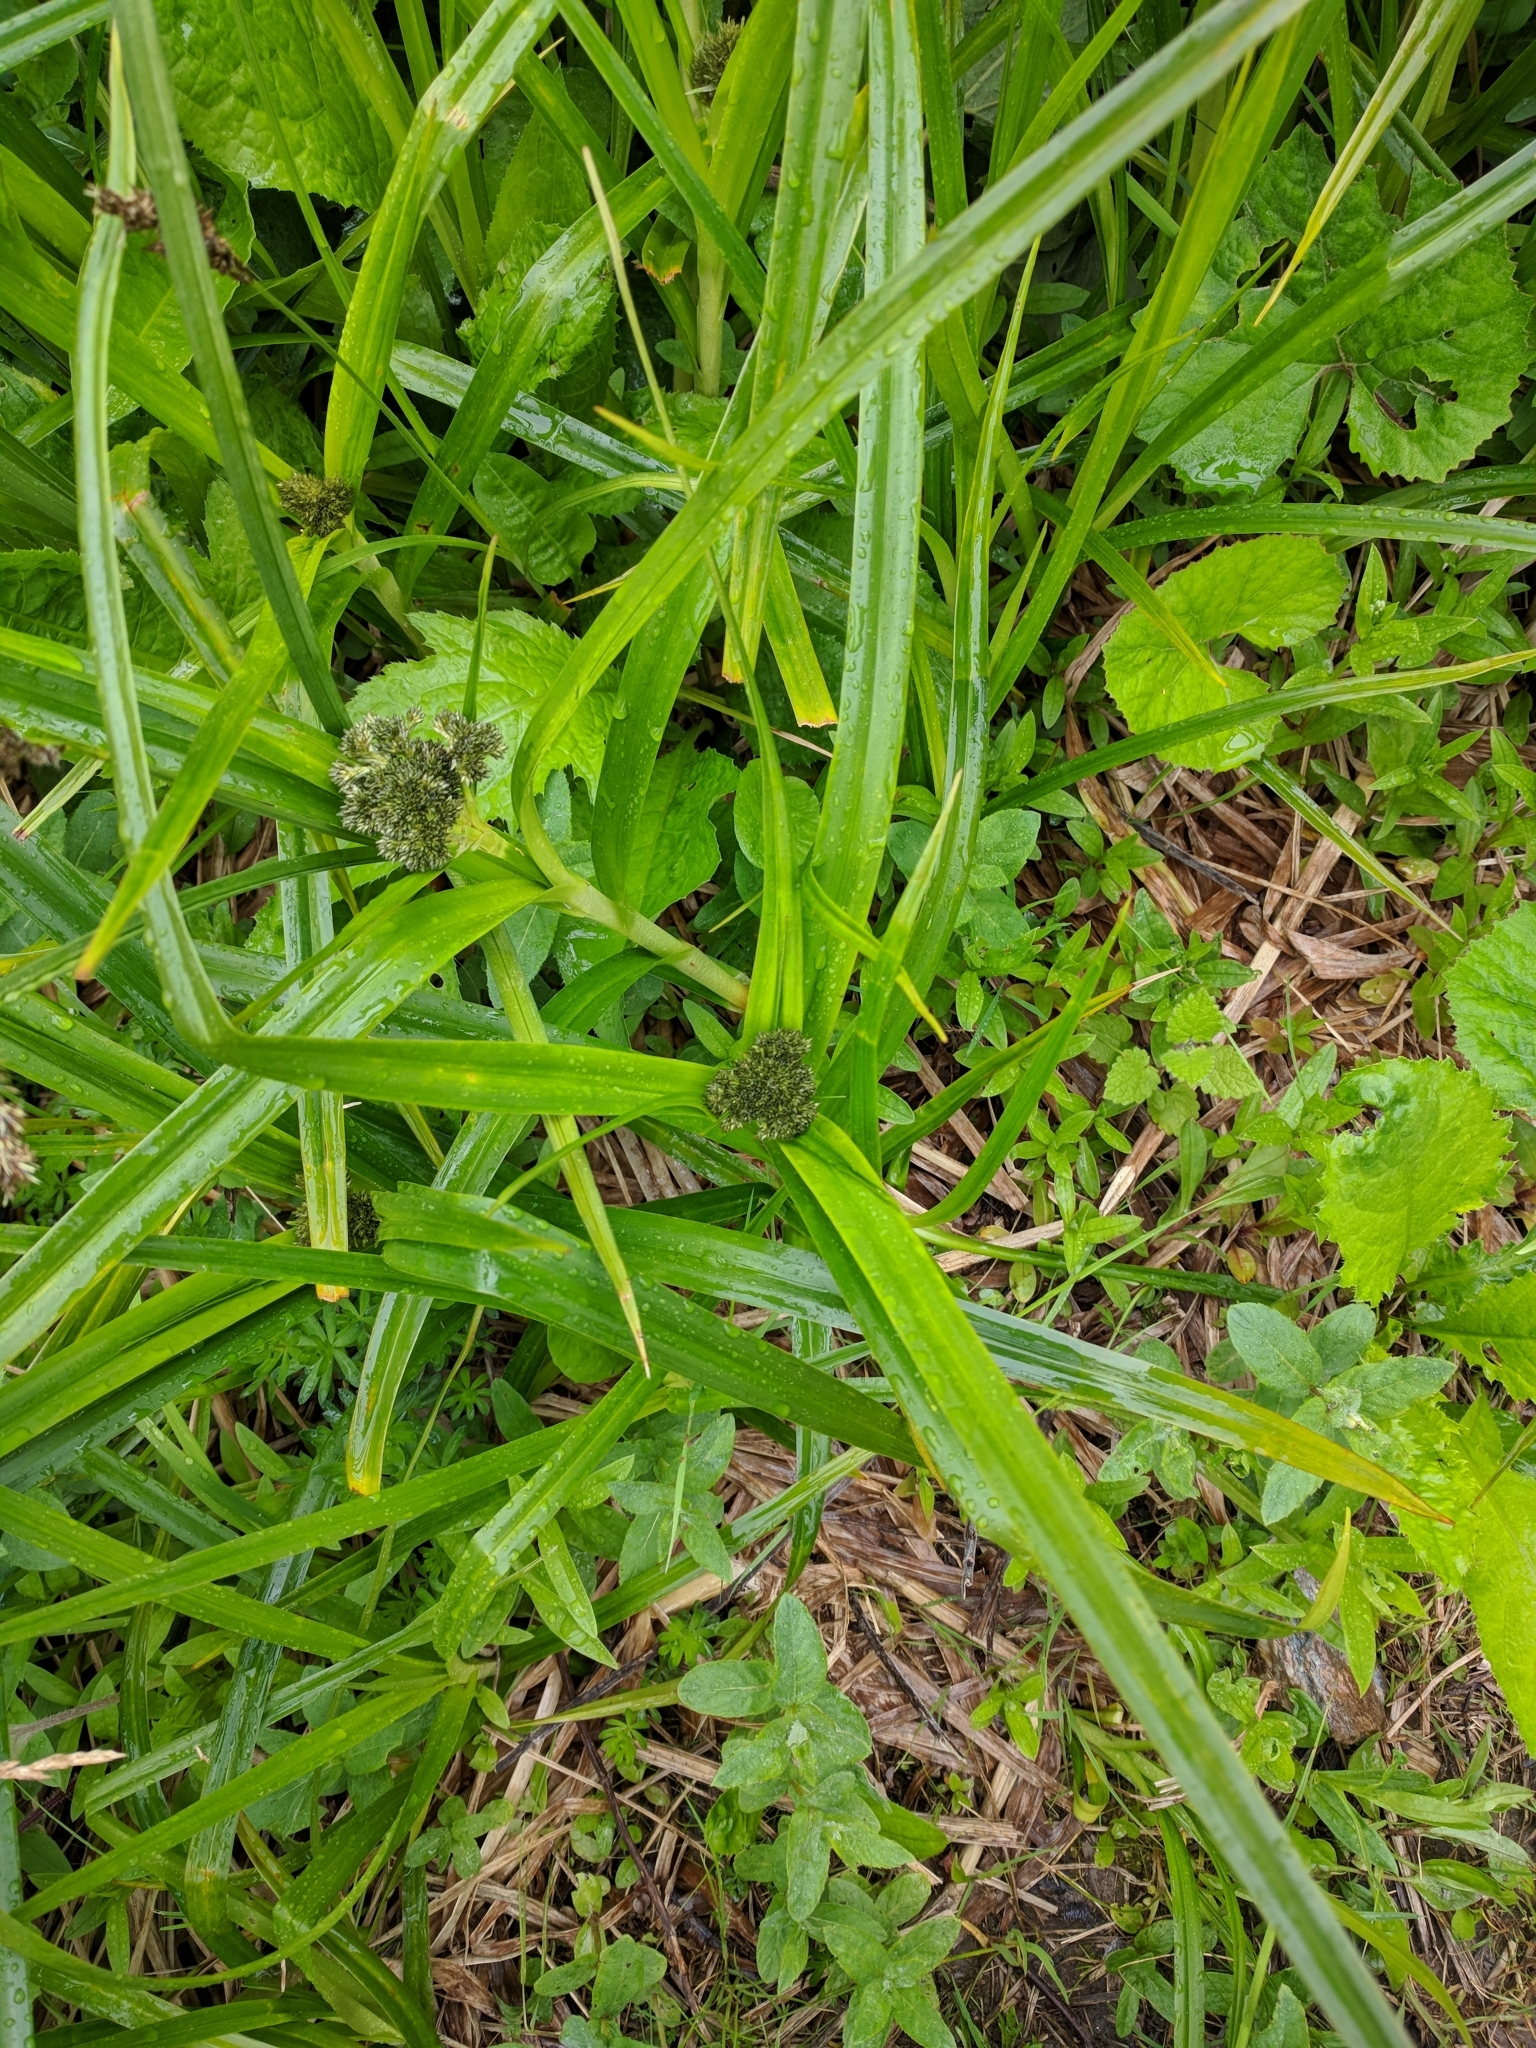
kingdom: Plantae
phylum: Tracheophyta
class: Liliopsida
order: Poales
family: Cyperaceae
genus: Scirpus
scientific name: Scirpus sylvaticus
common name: Wood club-rush
